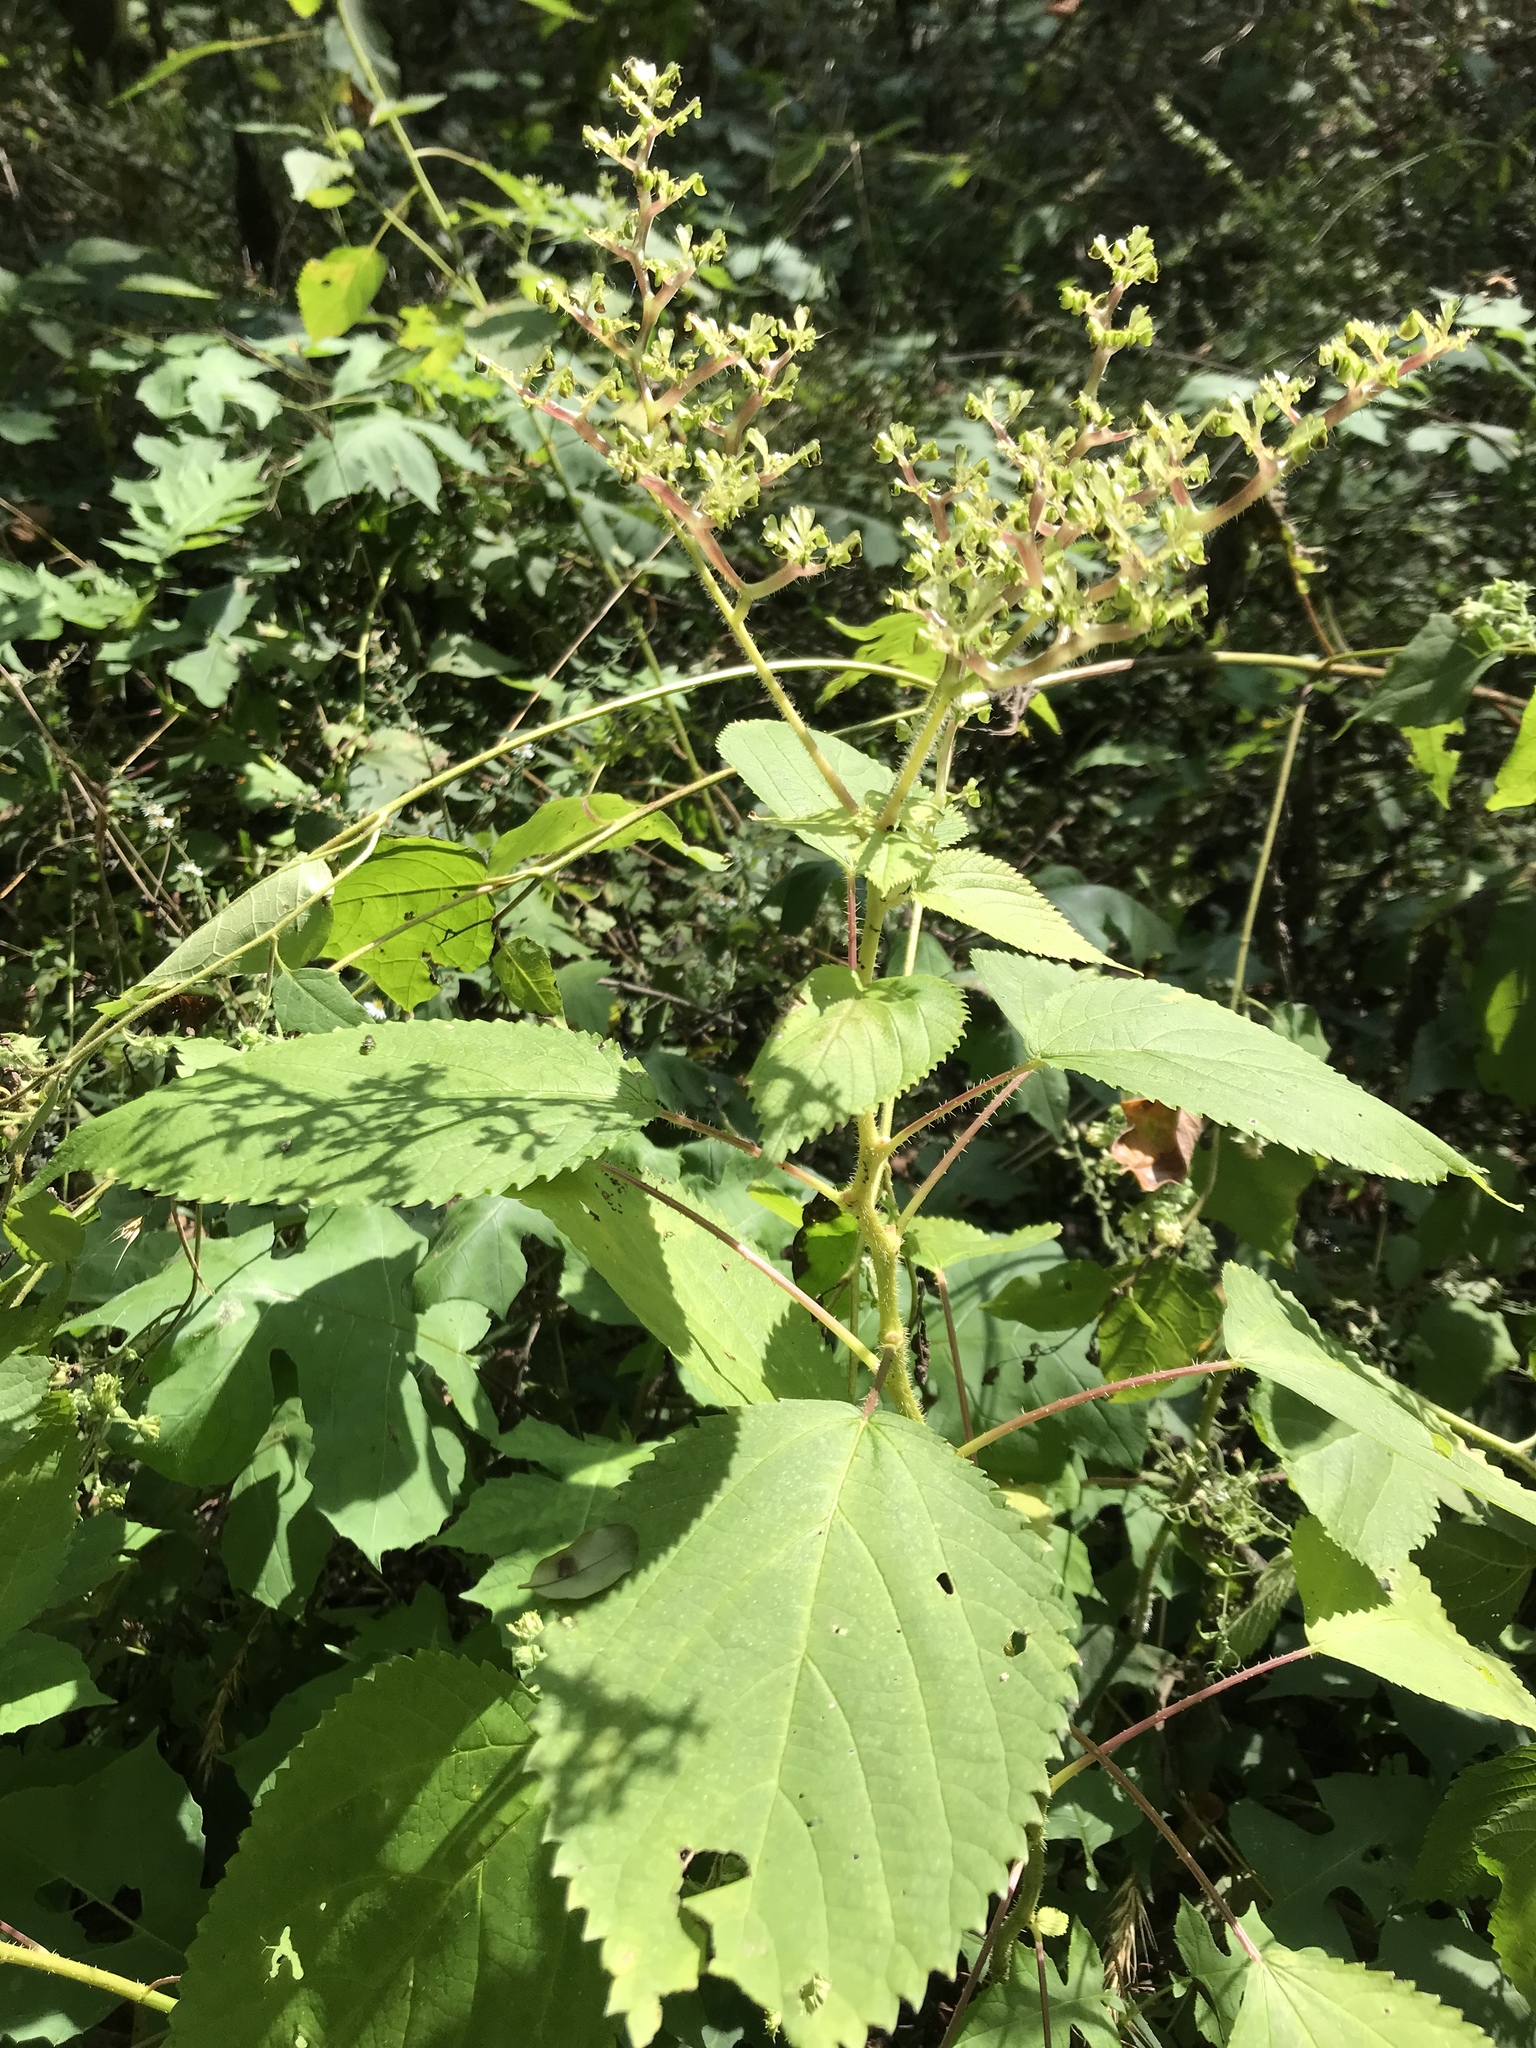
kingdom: Plantae
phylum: Tracheophyta
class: Magnoliopsida
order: Rosales
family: Urticaceae
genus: Laportea
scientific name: Laportea canadensis
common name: Canada nettle
